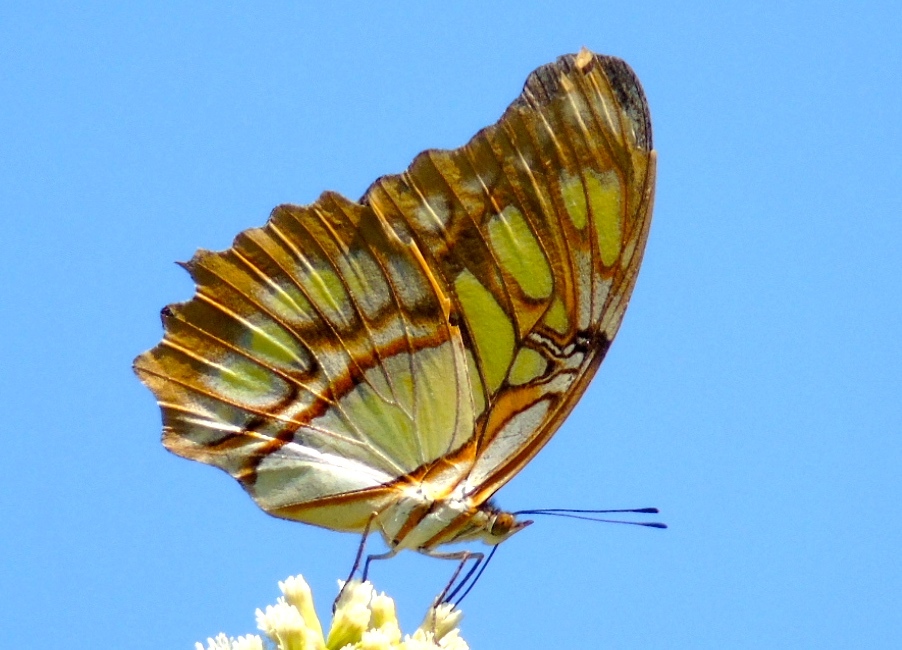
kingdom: Animalia
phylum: Arthropoda
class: Insecta
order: Lepidoptera
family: Nymphalidae
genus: Siproeta
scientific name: Siproeta stelenes
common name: Malachite
